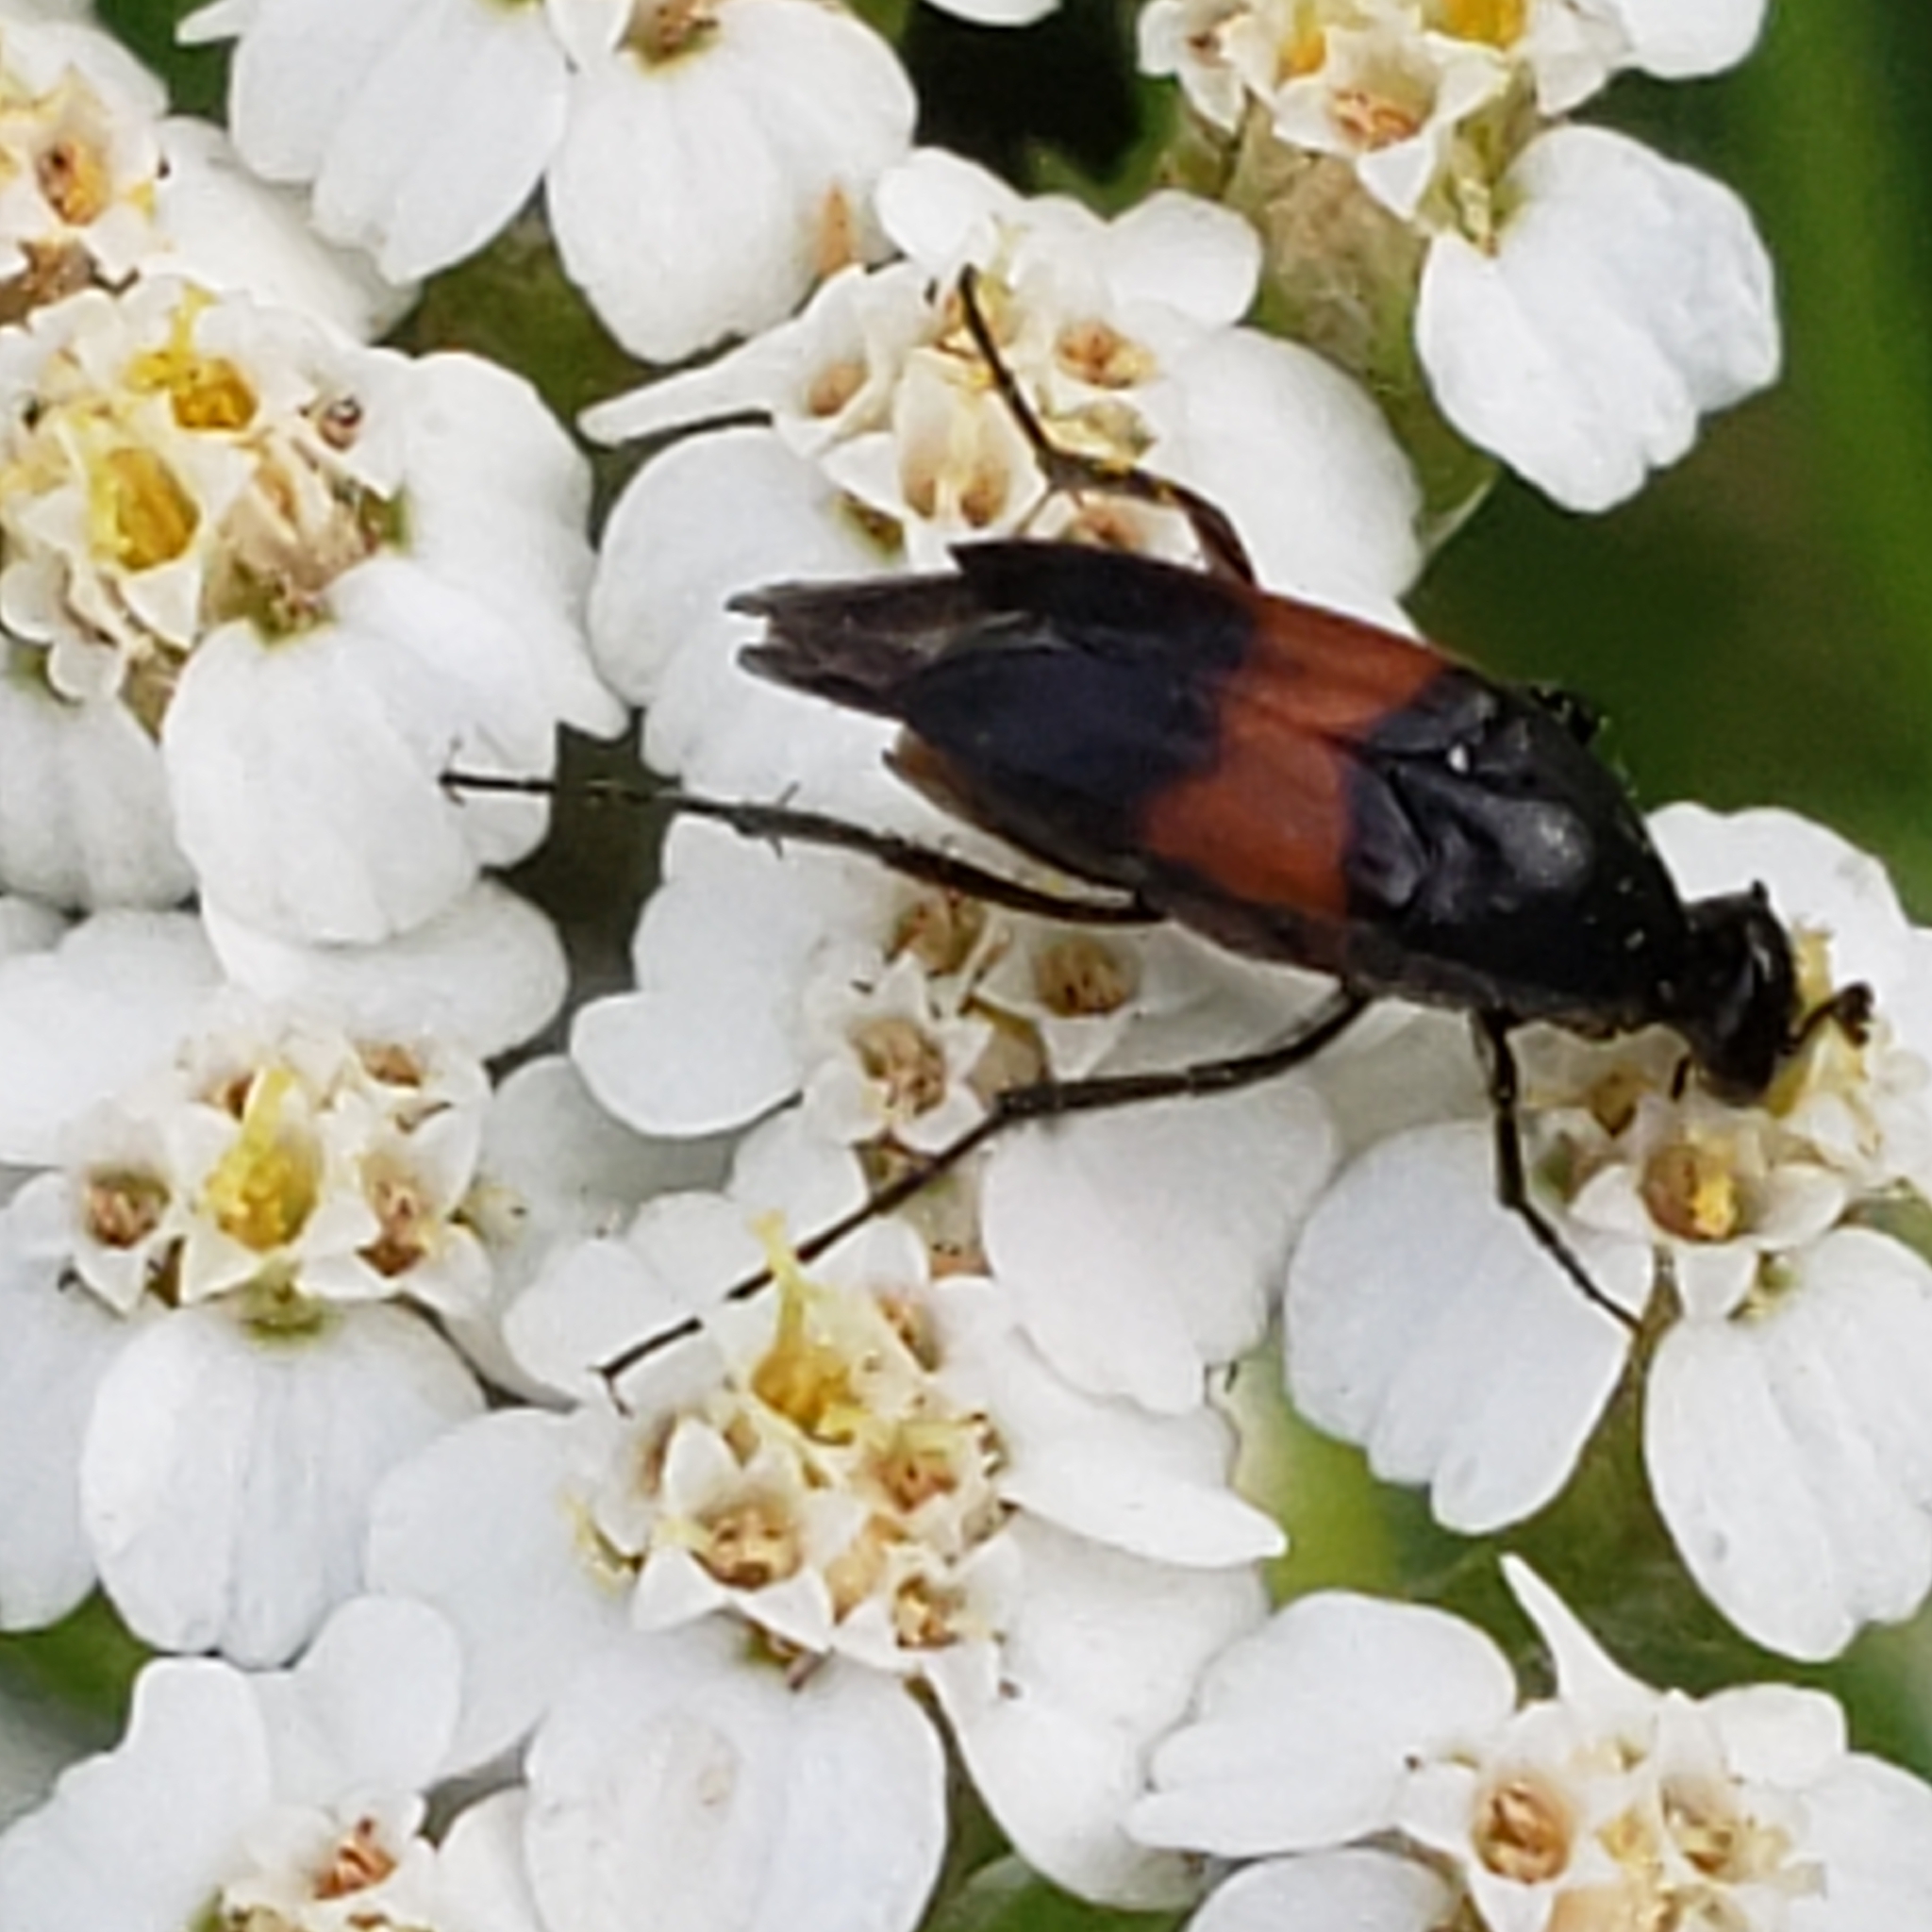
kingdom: Animalia
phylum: Arthropoda
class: Insecta
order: Coleoptera
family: Ripiphoridae
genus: Macrosiagon
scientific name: Macrosiagon cruentum
